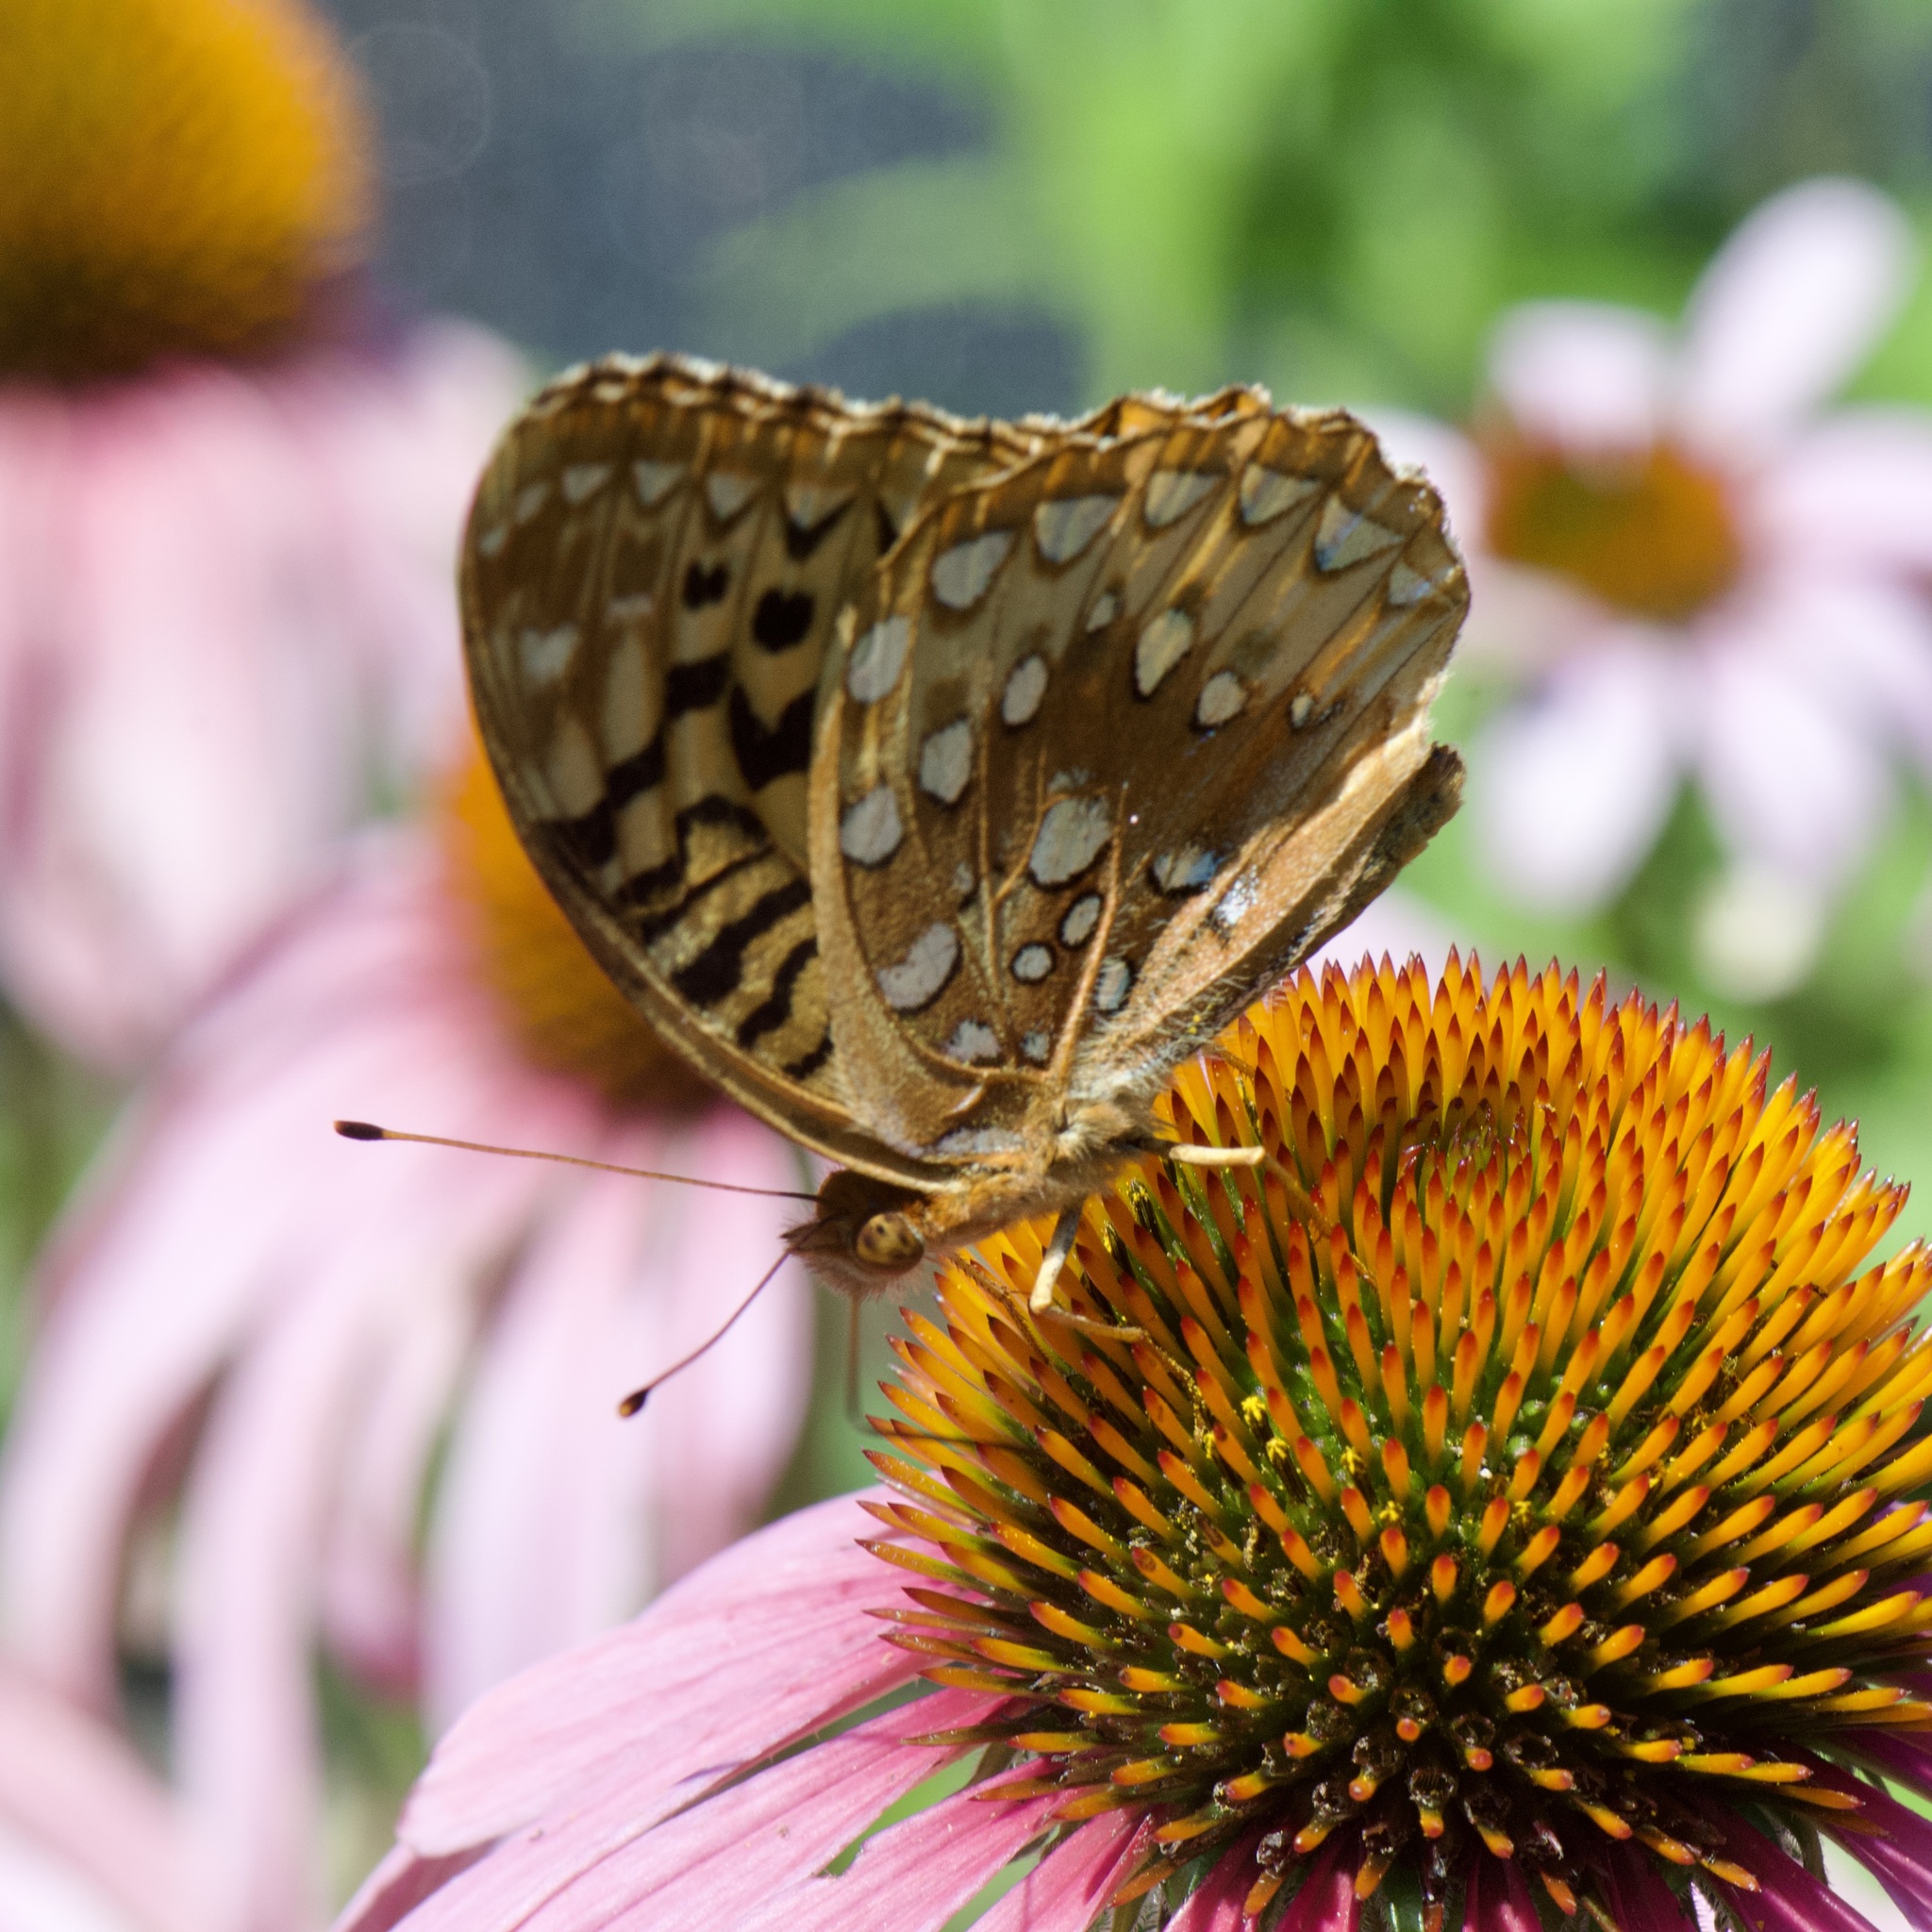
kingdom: Animalia
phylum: Arthropoda
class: Insecta
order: Lepidoptera
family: Nymphalidae
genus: Speyeria
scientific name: Speyeria cybele
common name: Great spangled fritillary
